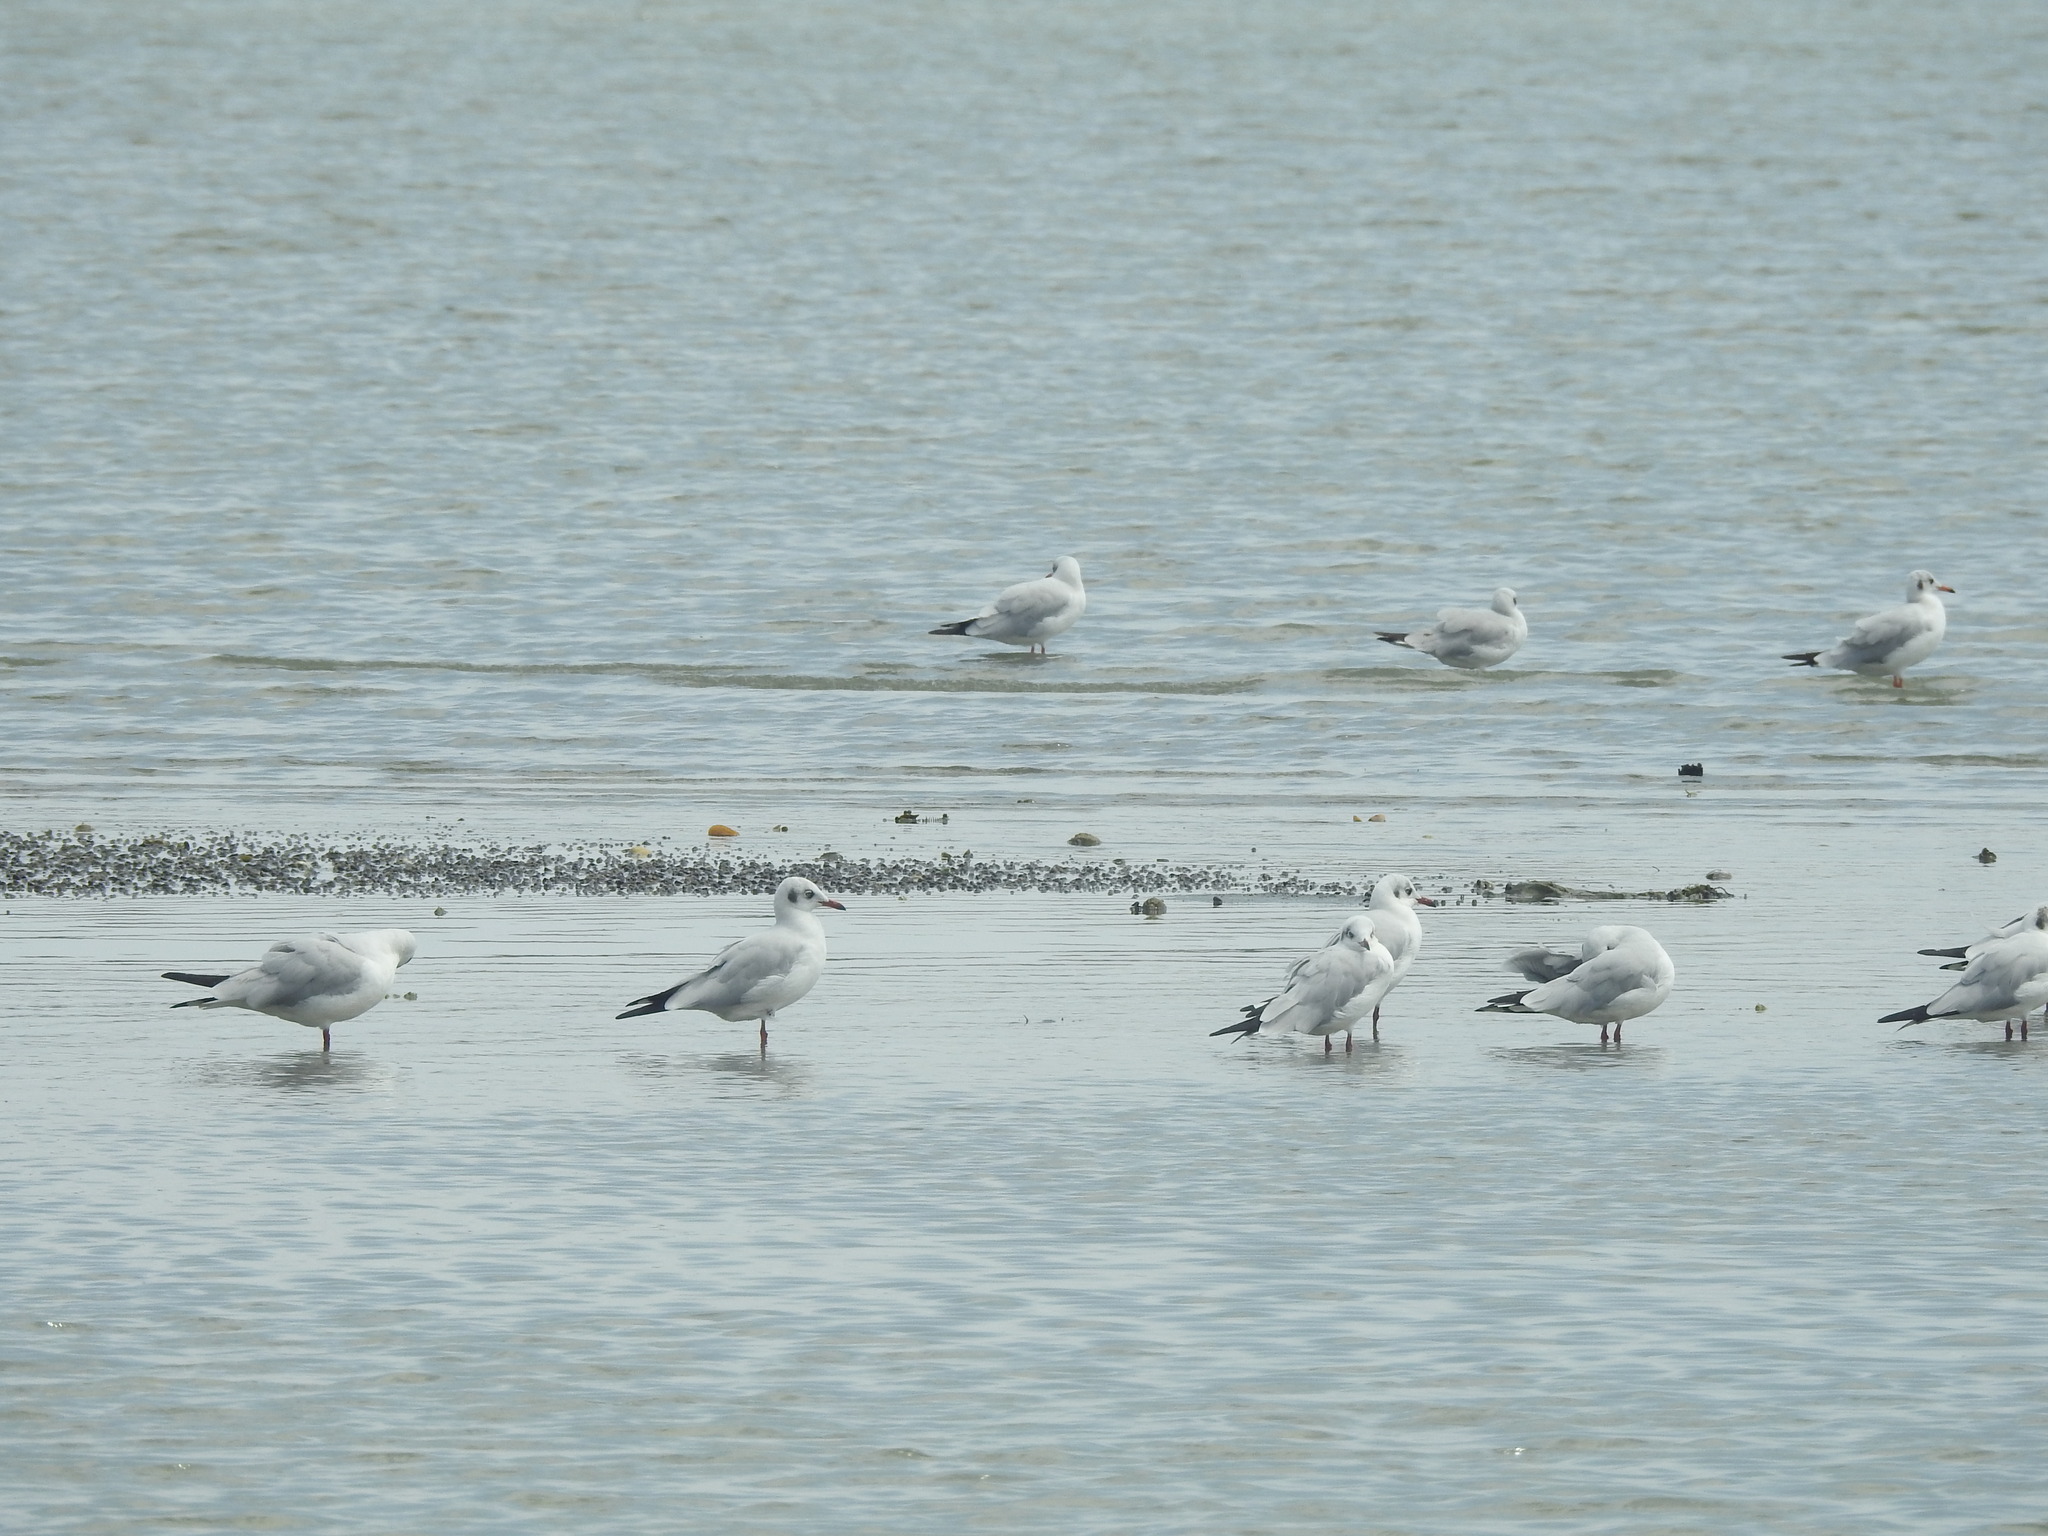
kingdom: Animalia
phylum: Chordata
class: Aves
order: Charadriiformes
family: Laridae
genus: Chroicocephalus
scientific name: Chroicocephalus ridibundus
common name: Black-headed gull
